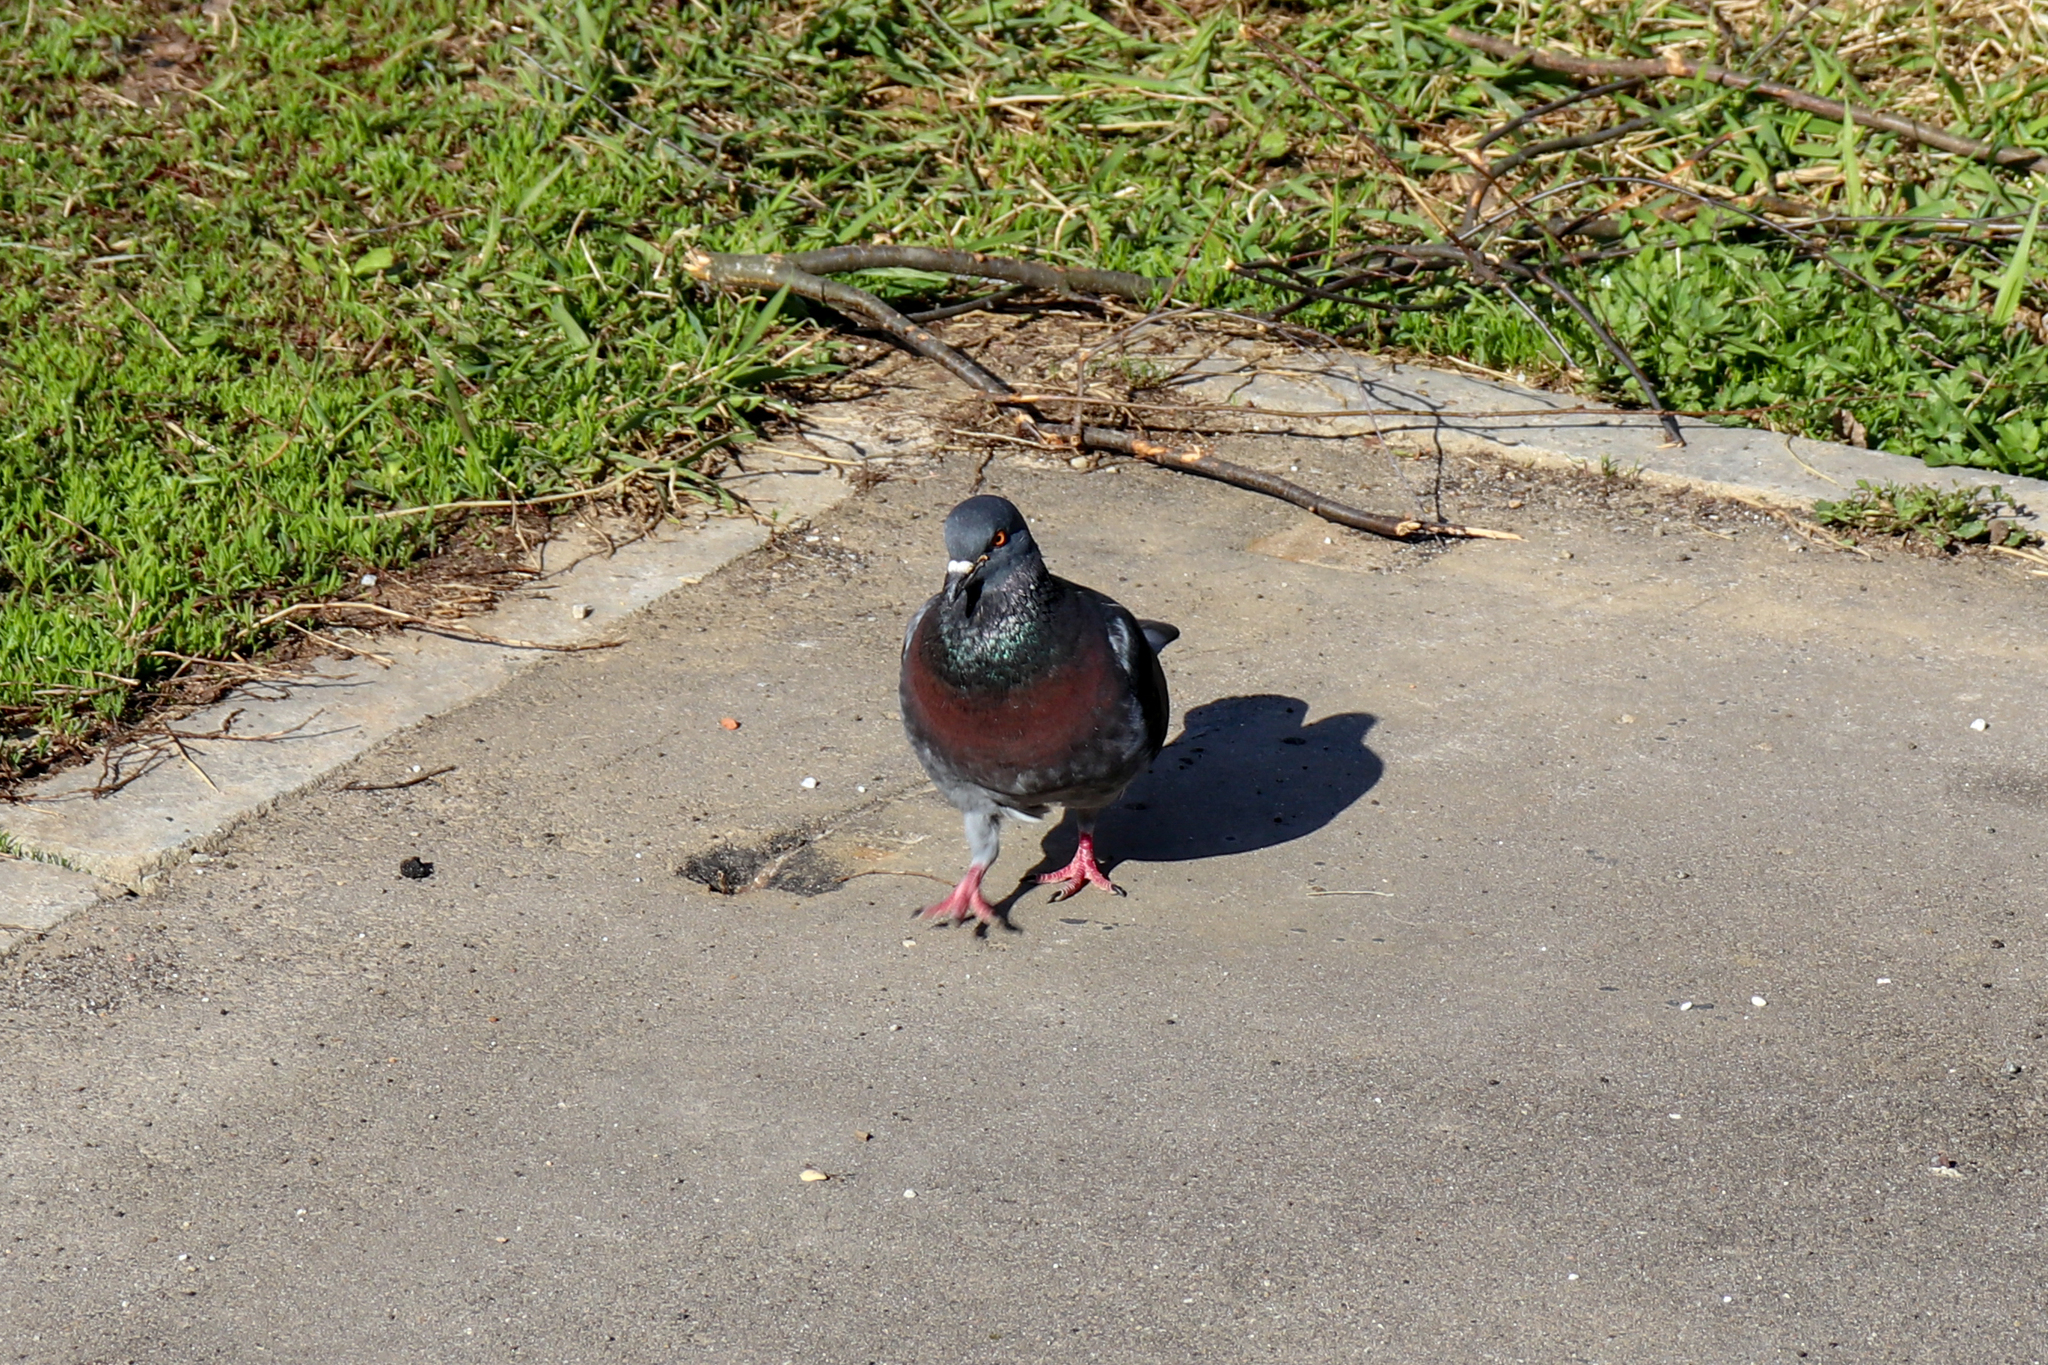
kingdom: Animalia
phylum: Chordata
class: Aves
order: Columbiformes
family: Columbidae
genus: Columba
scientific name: Columba livia
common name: Rock pigeon
